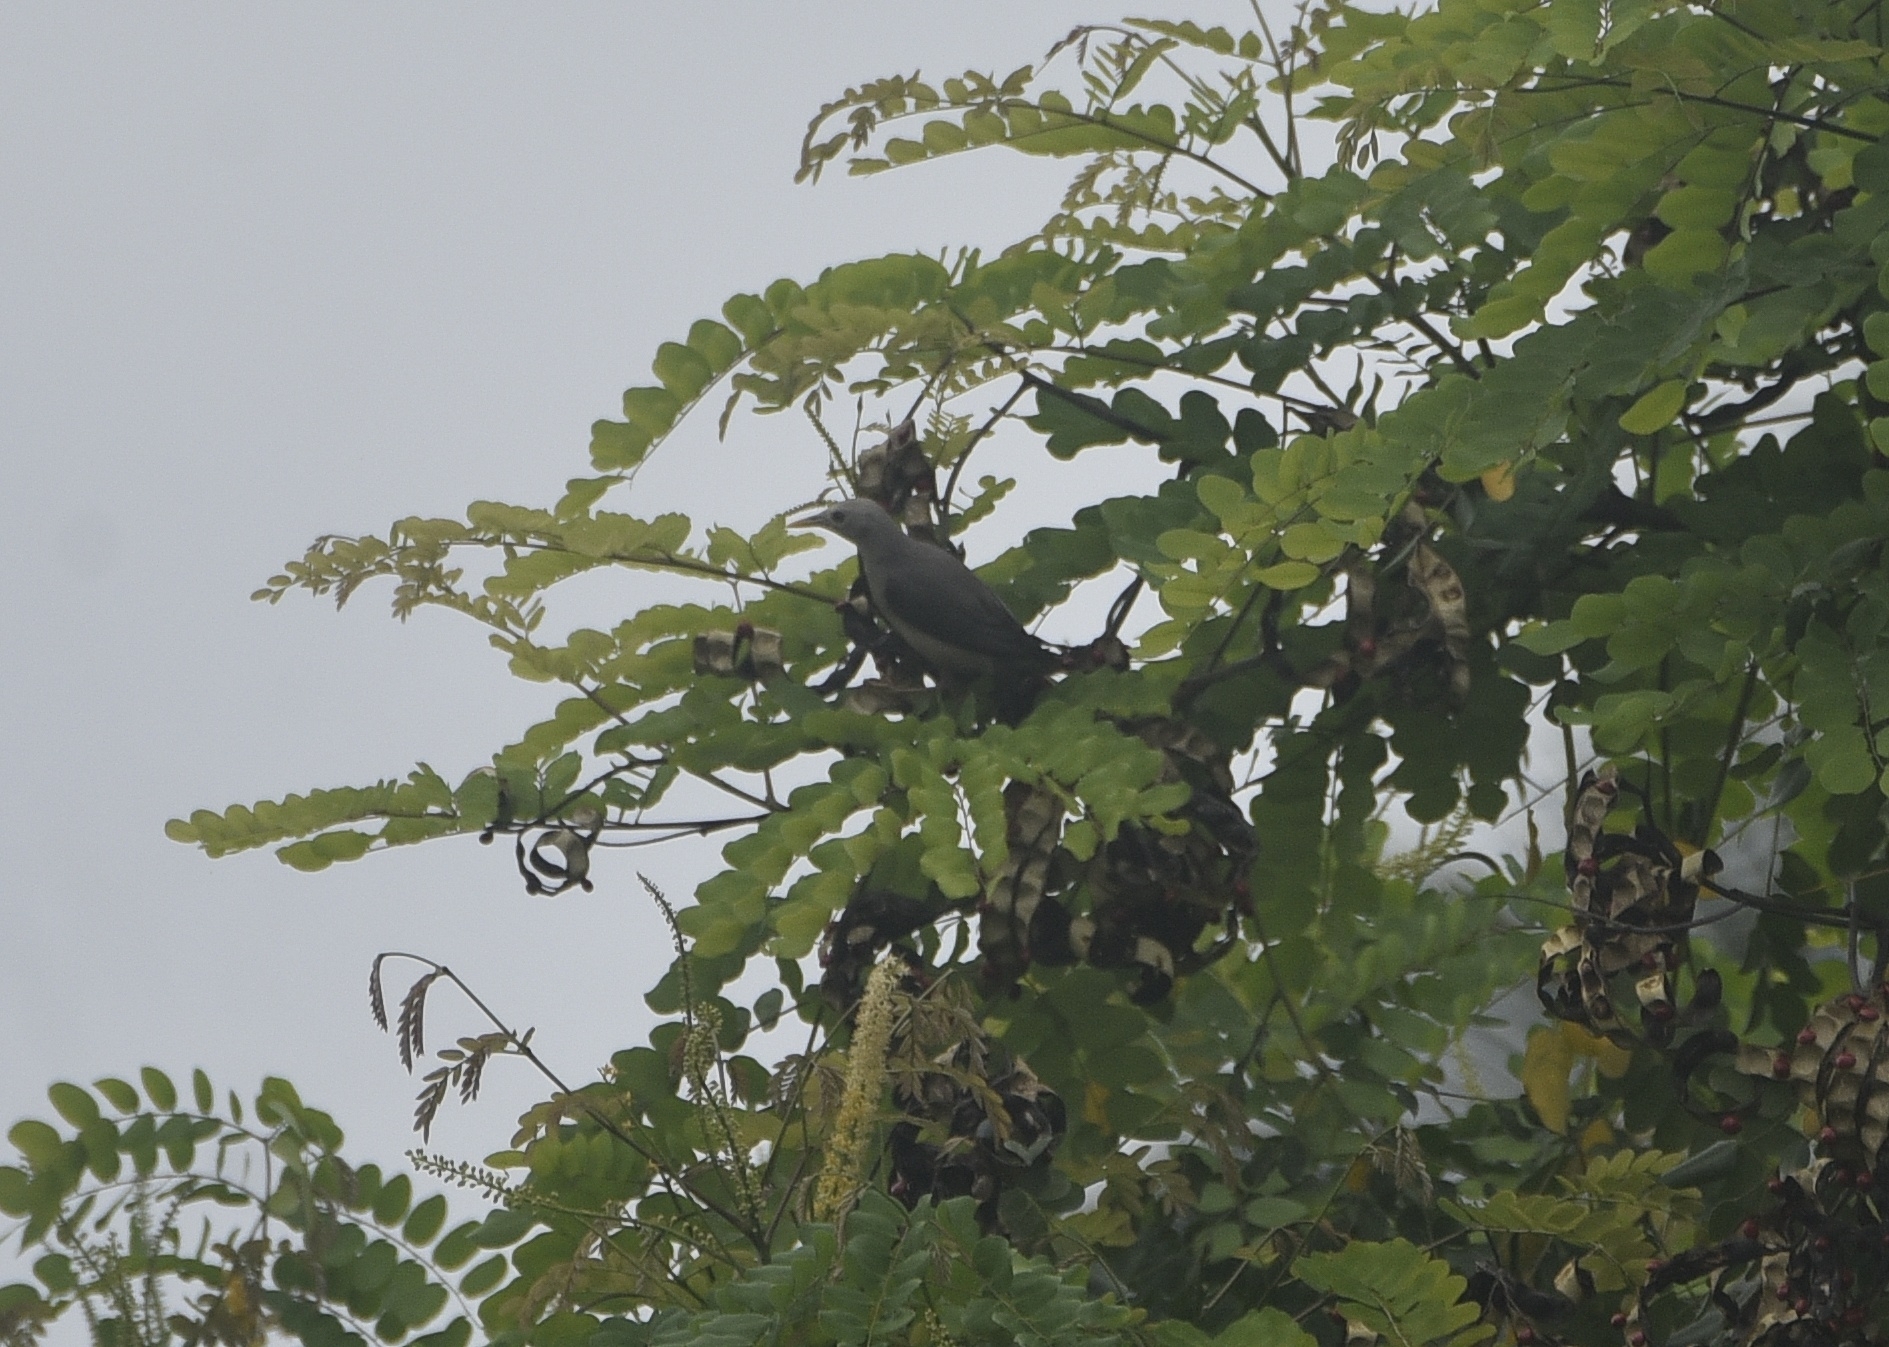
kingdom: Animalia
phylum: Chordata
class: Aves
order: Passeriformes
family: Sturnidae
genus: Sturnia
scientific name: Sturnia blythii
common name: Malabar starling
